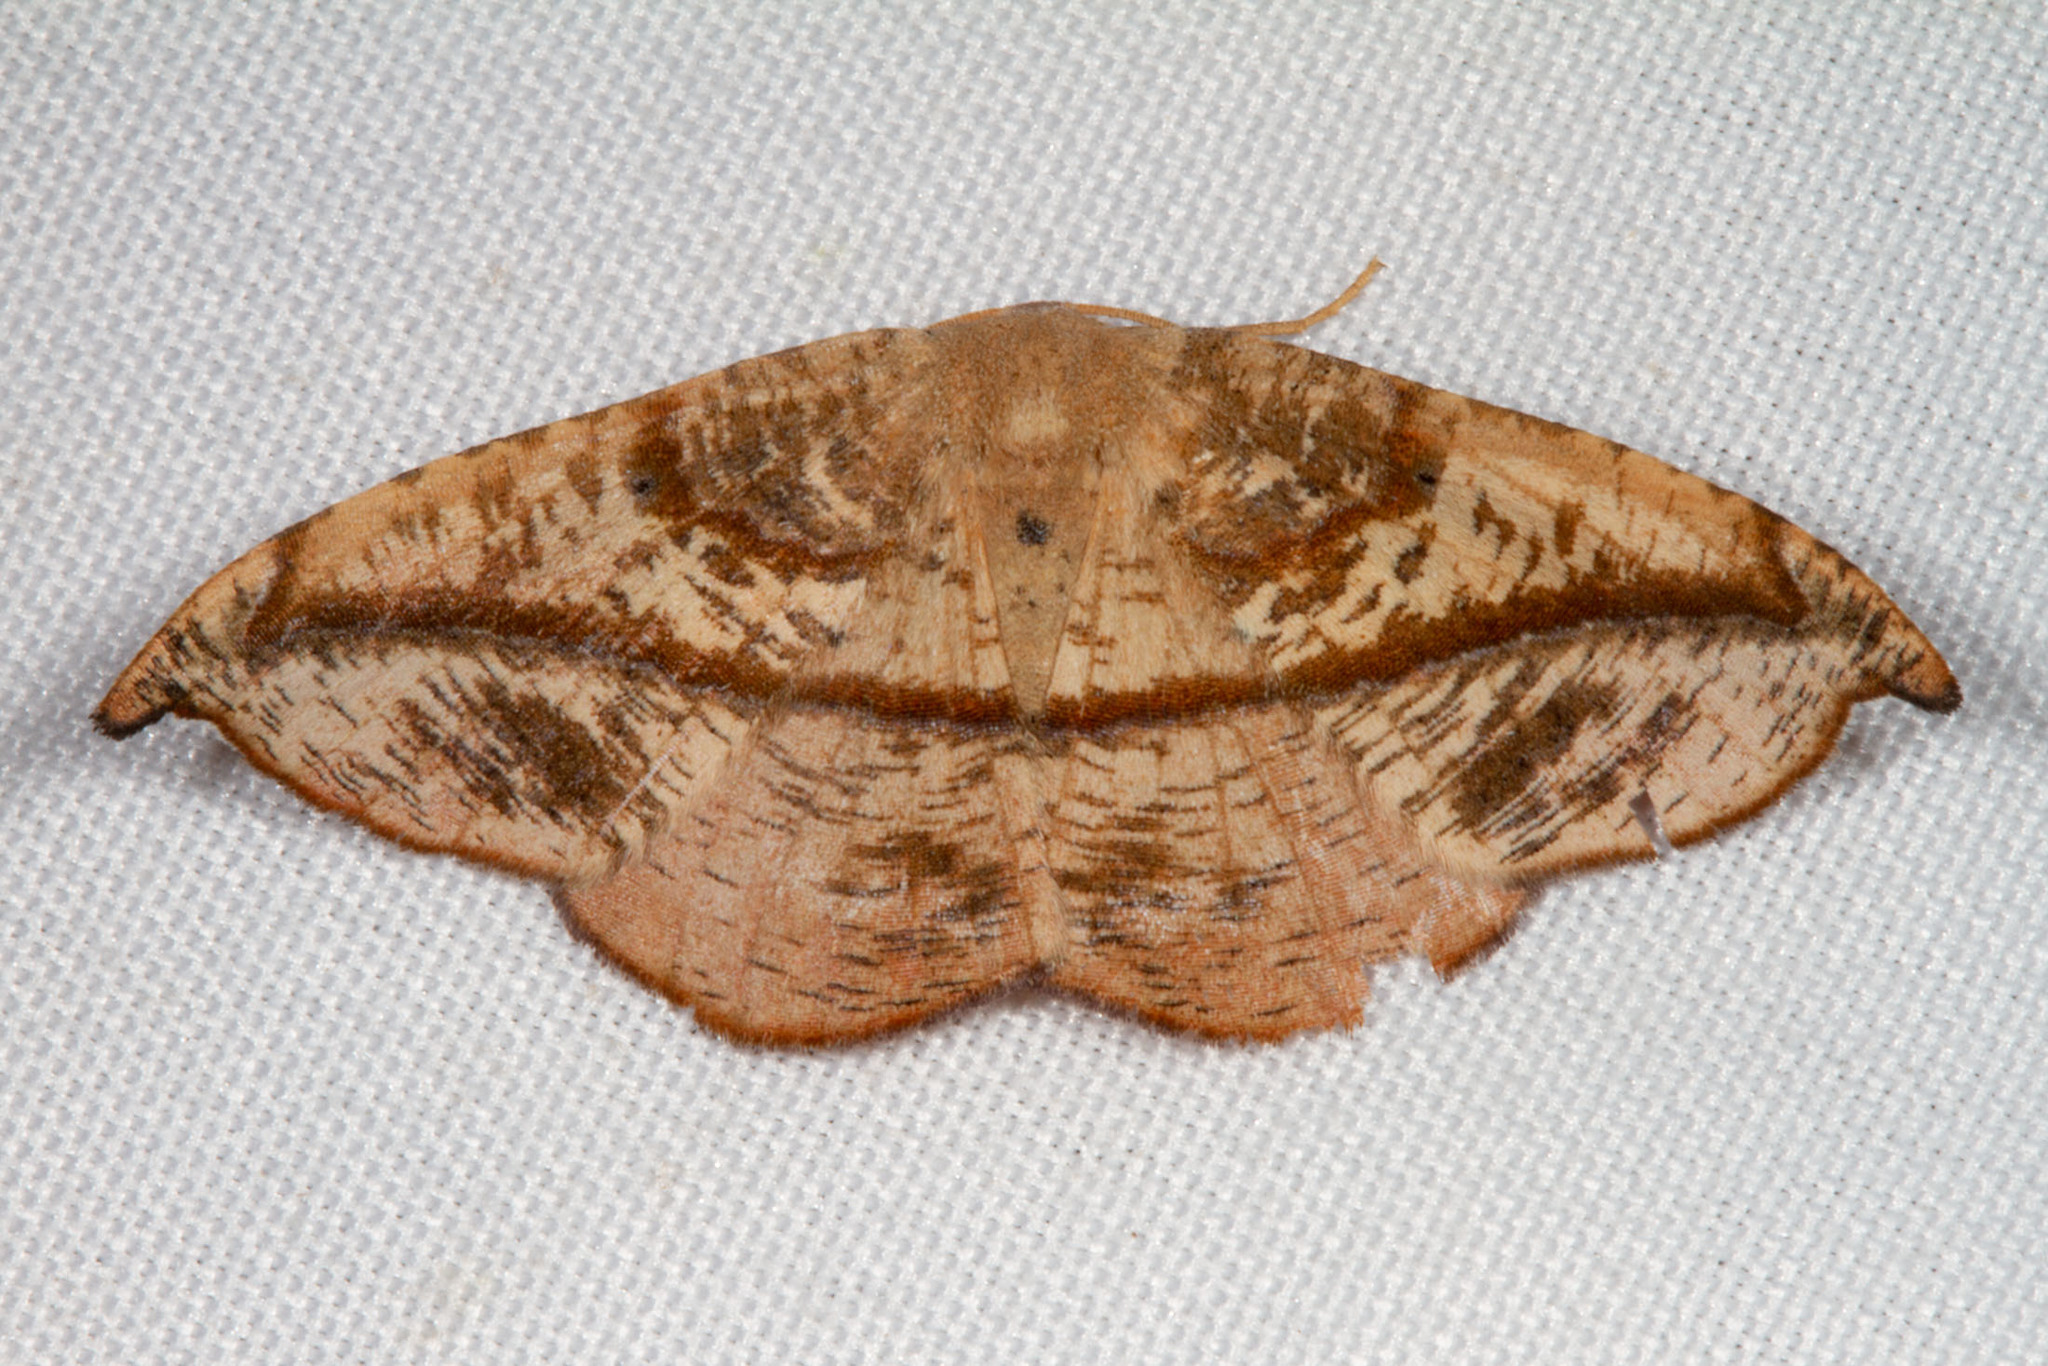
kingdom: Animalia
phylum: Arthropoda
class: Insecta
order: Lepidoptera
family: Geometridae
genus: Patalene
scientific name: Patalene olyzonaria
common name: Juniper geometer moth
